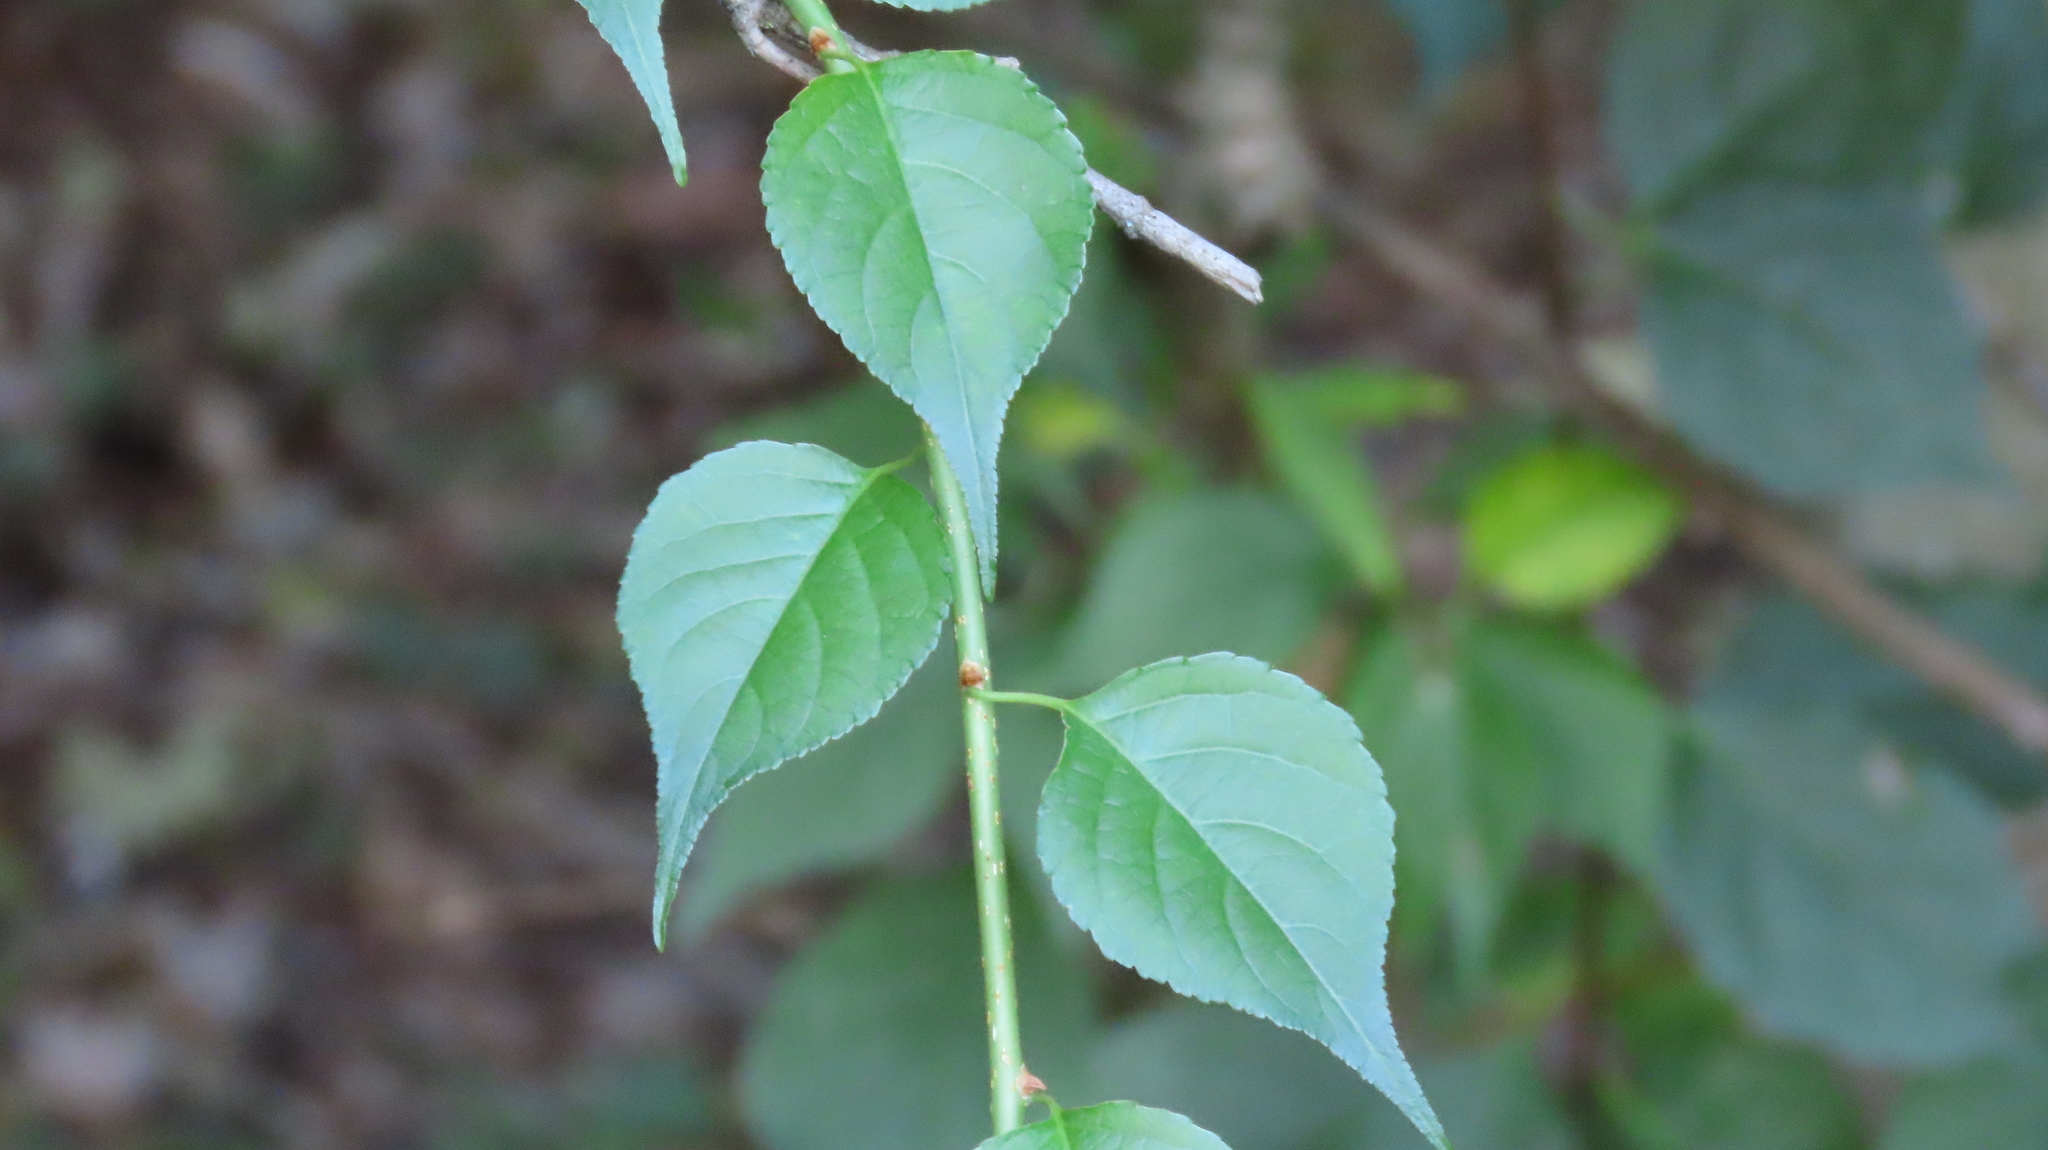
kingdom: Plantae
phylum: Tracheophyta
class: Magnoliopsida
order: Celastrales
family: Celastraceae
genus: Celastrus
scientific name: Celastrus orbiculatus
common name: Oriental bittersweet
